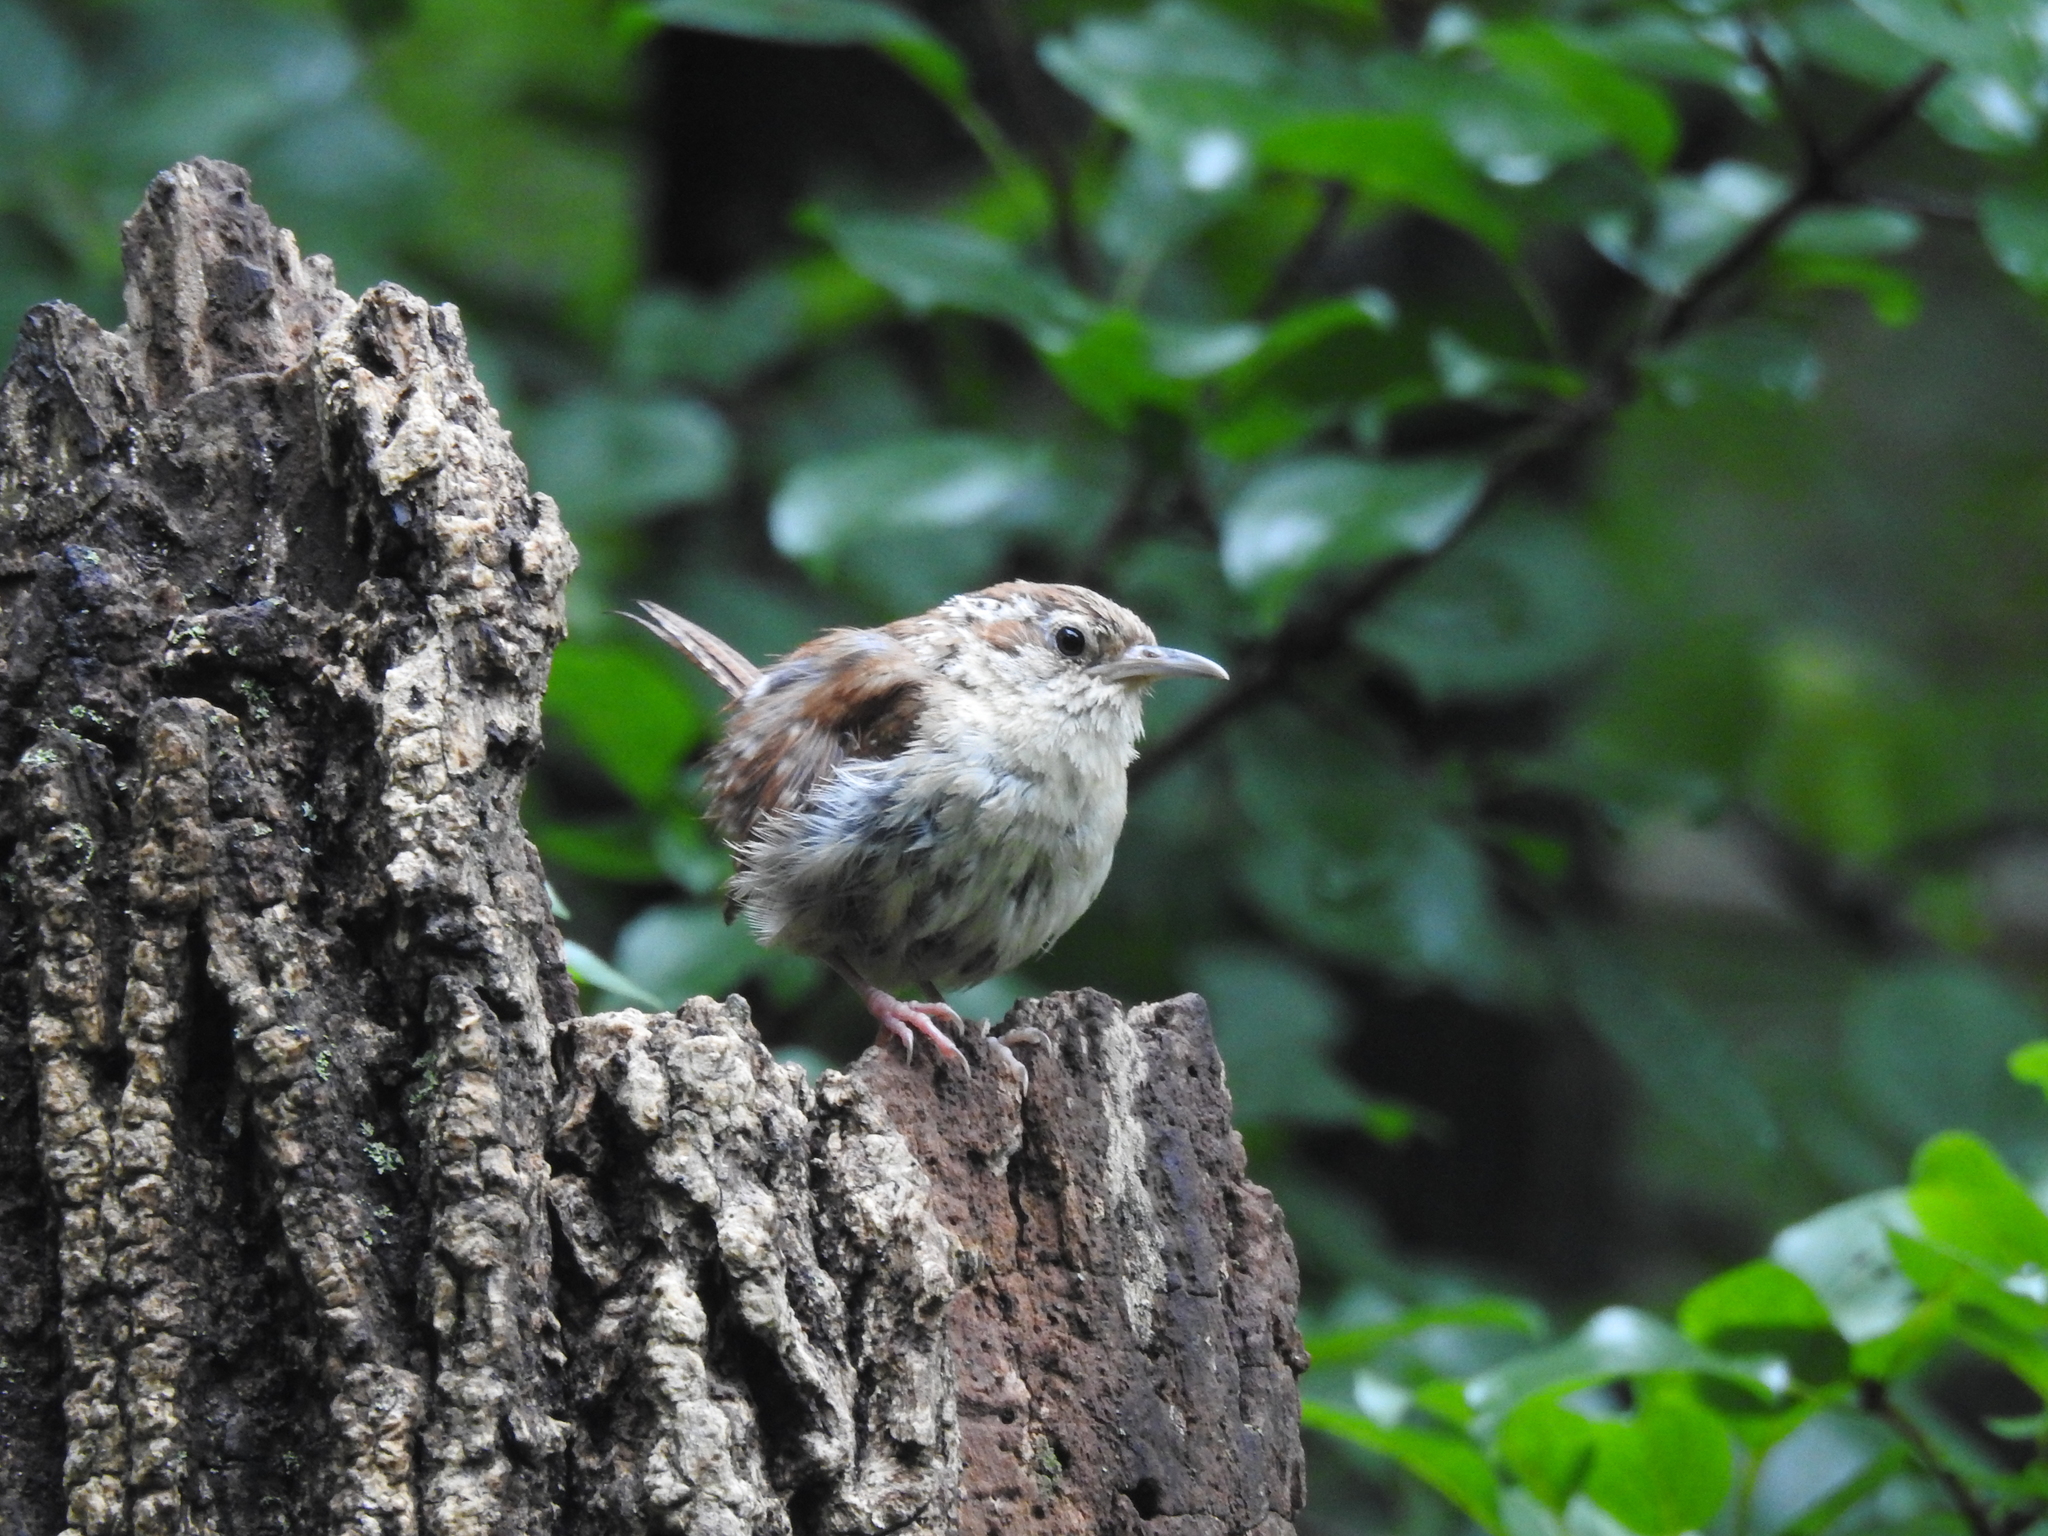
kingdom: Animalia
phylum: Chordata
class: Aves
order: Passeriformes
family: Troglodytidae
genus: Thryothorus
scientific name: Thryothorus ludovicianus
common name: Carolina wren
